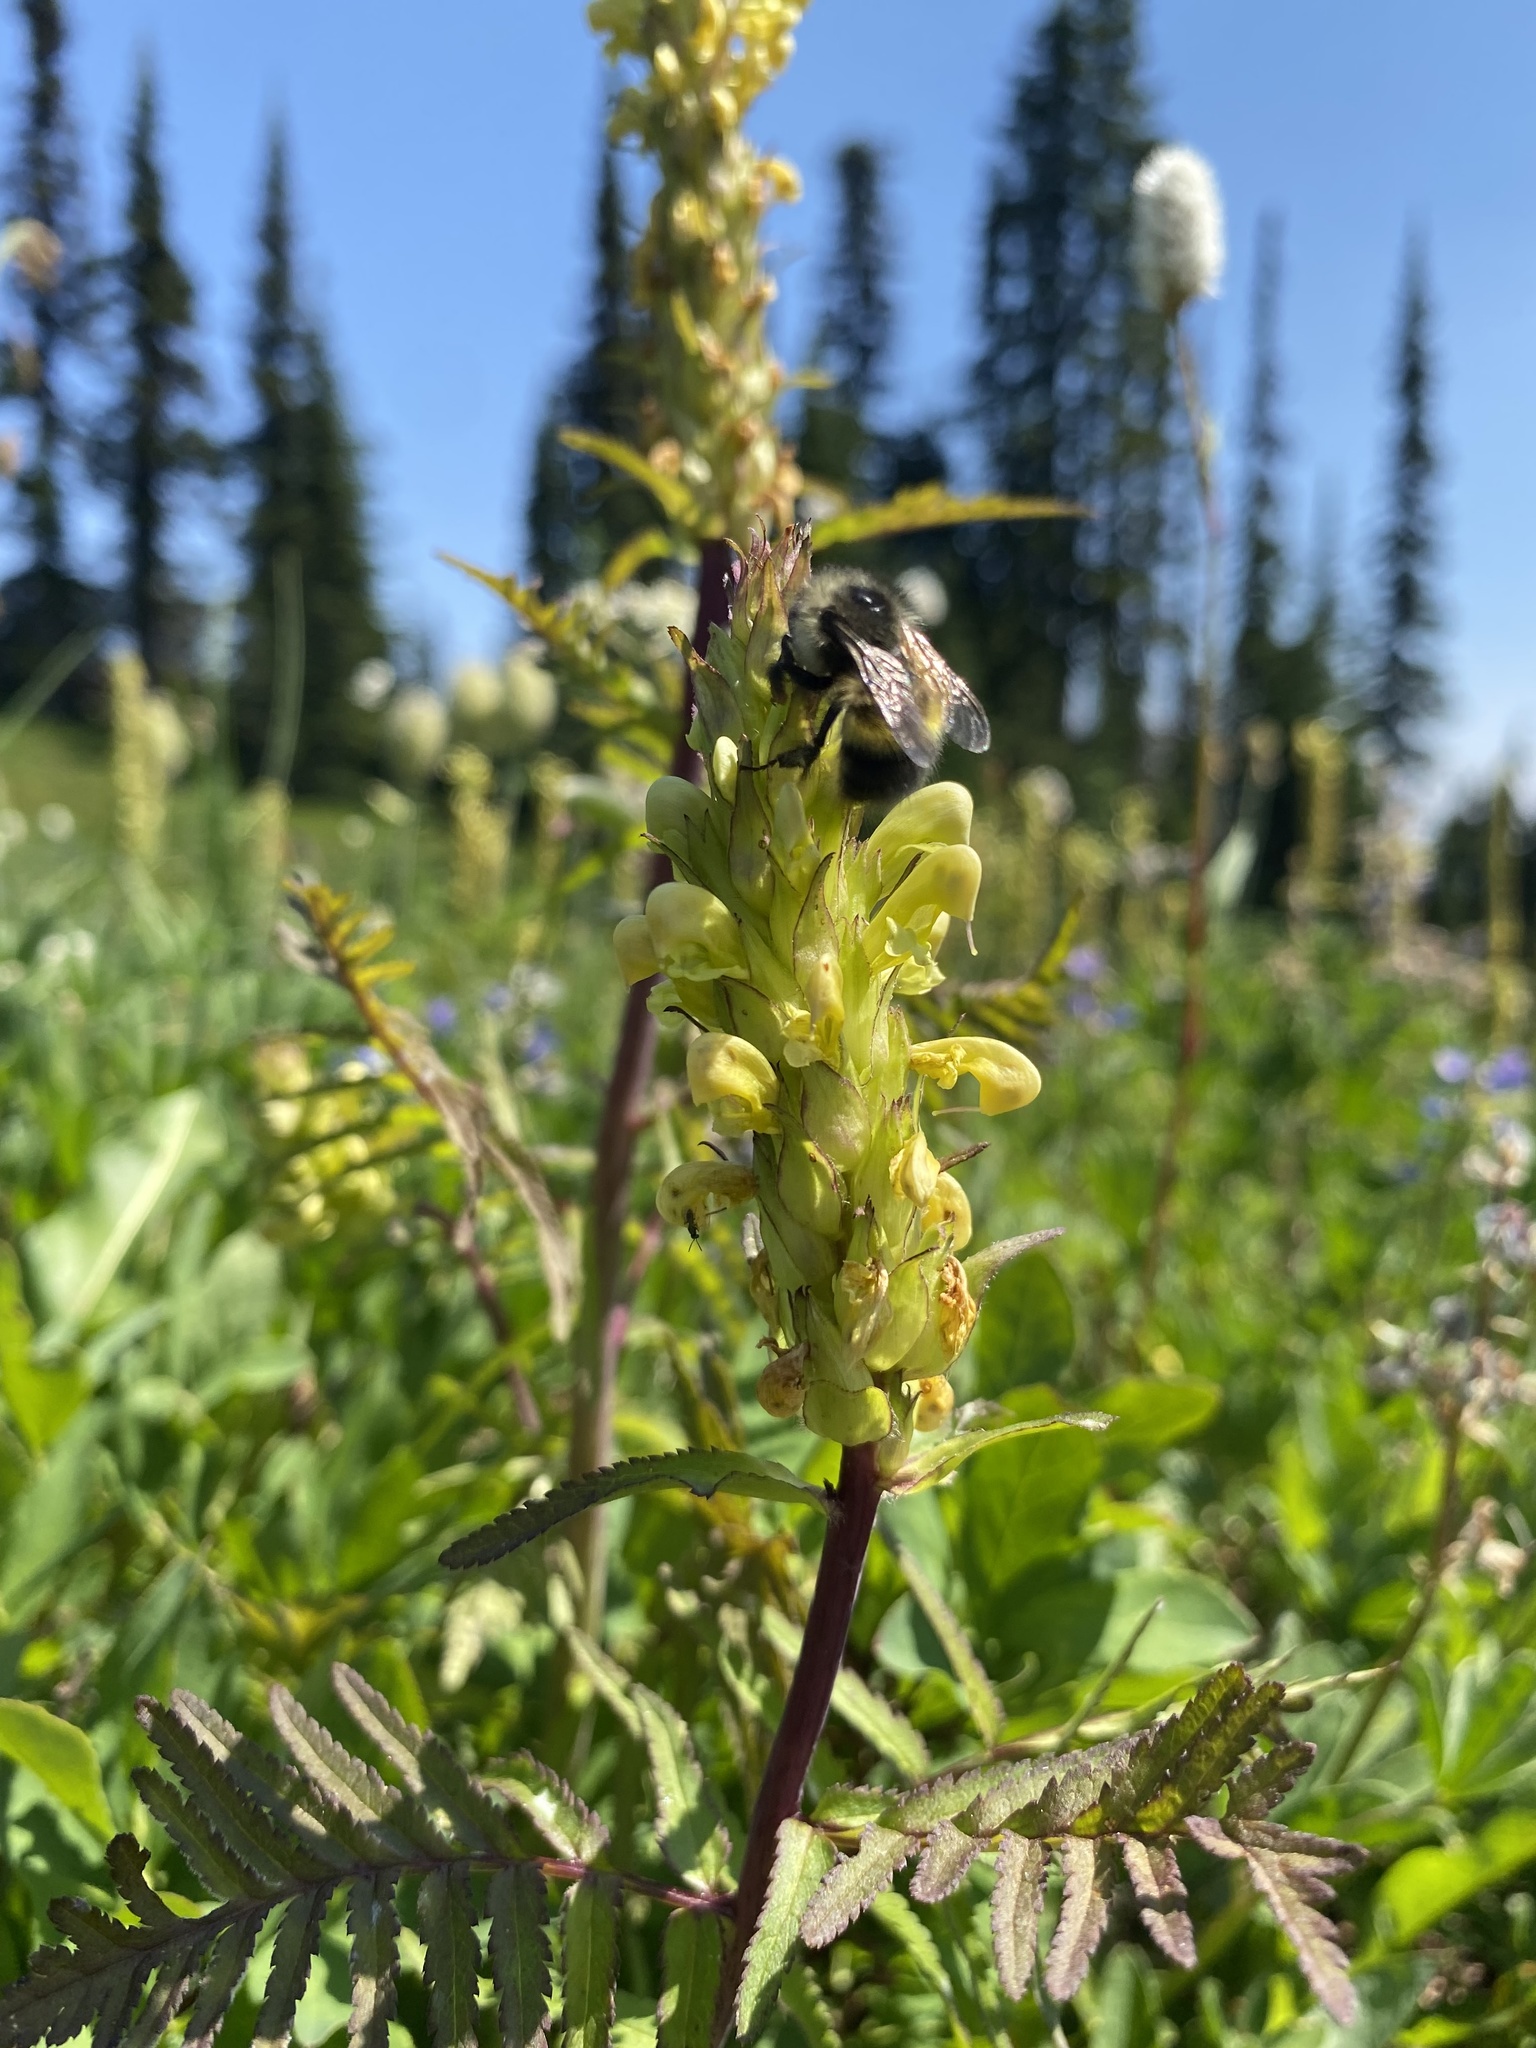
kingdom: Plantae
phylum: Tracheophyta
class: Magnoliopsida
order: Lamiales
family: Orobanchaceae
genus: Pedicularis
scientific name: Pedicularis bracteosa
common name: Bracted lousewort
